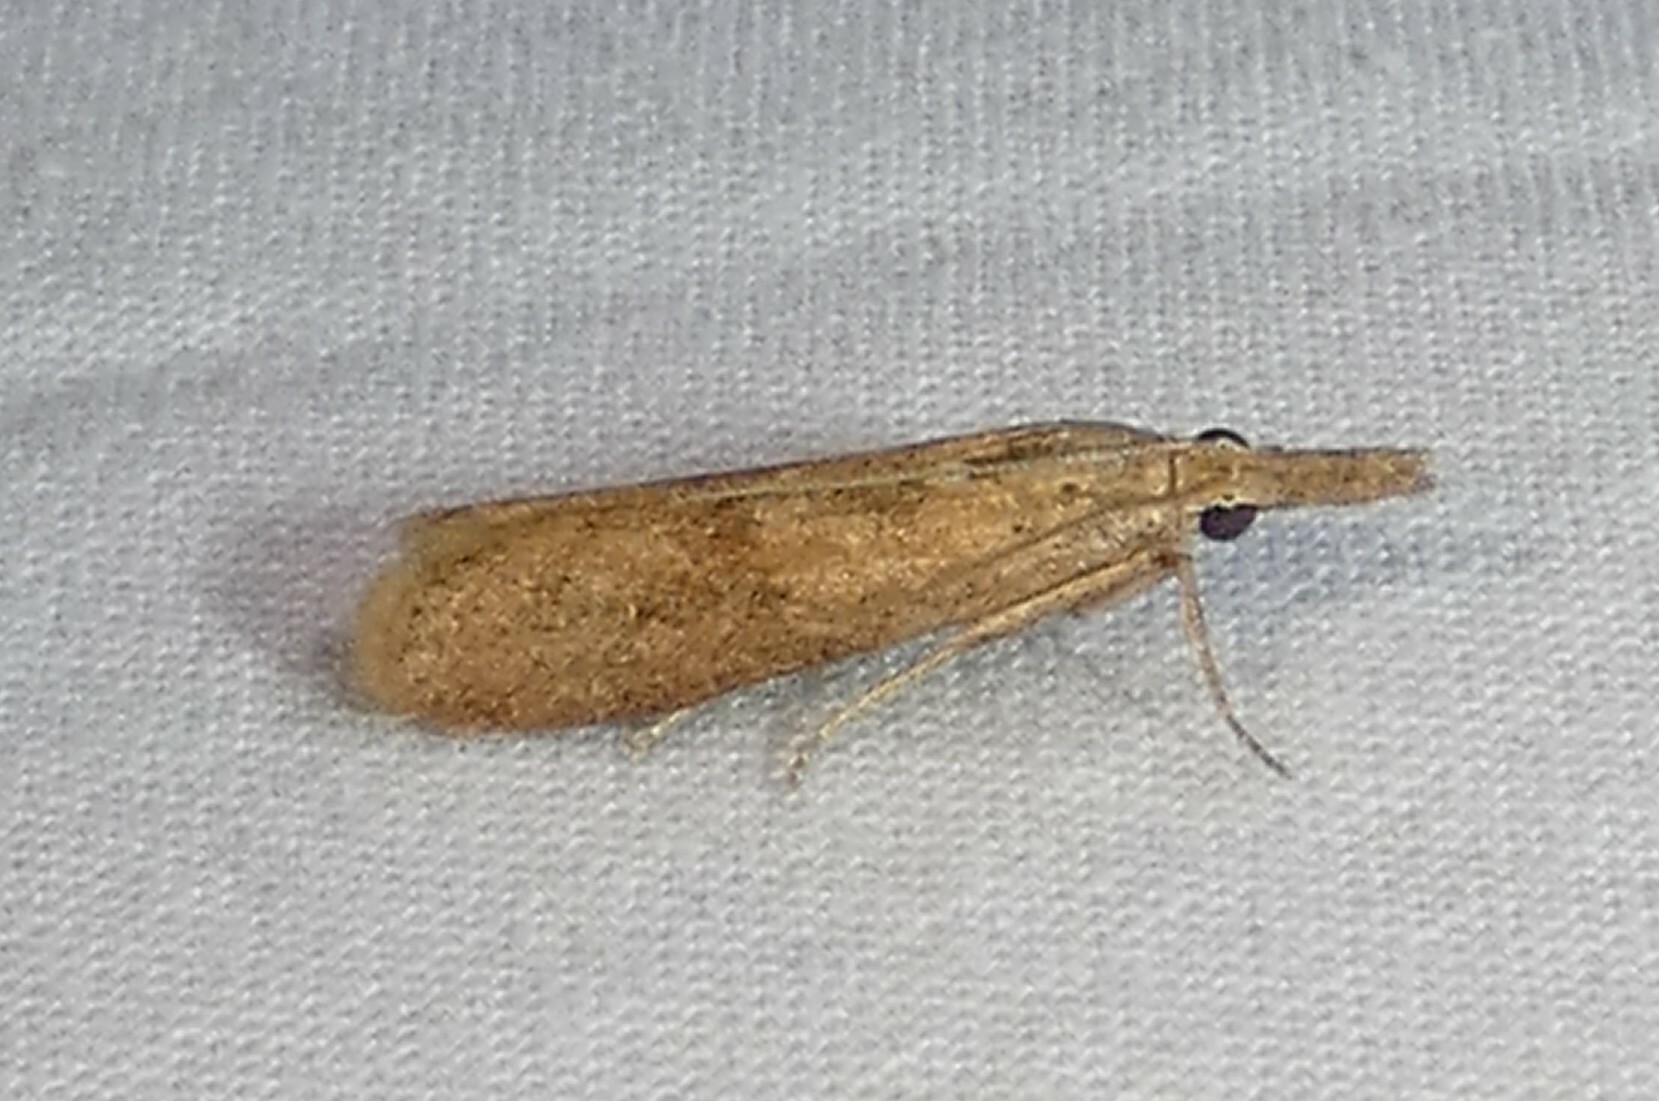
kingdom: Animalia
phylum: Arthropoda
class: Insecta
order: Lepidoptera
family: Pyralidae
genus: Macrorrhinia
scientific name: Macrorrhinia endonephele
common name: Alligator weed stemborer moth
